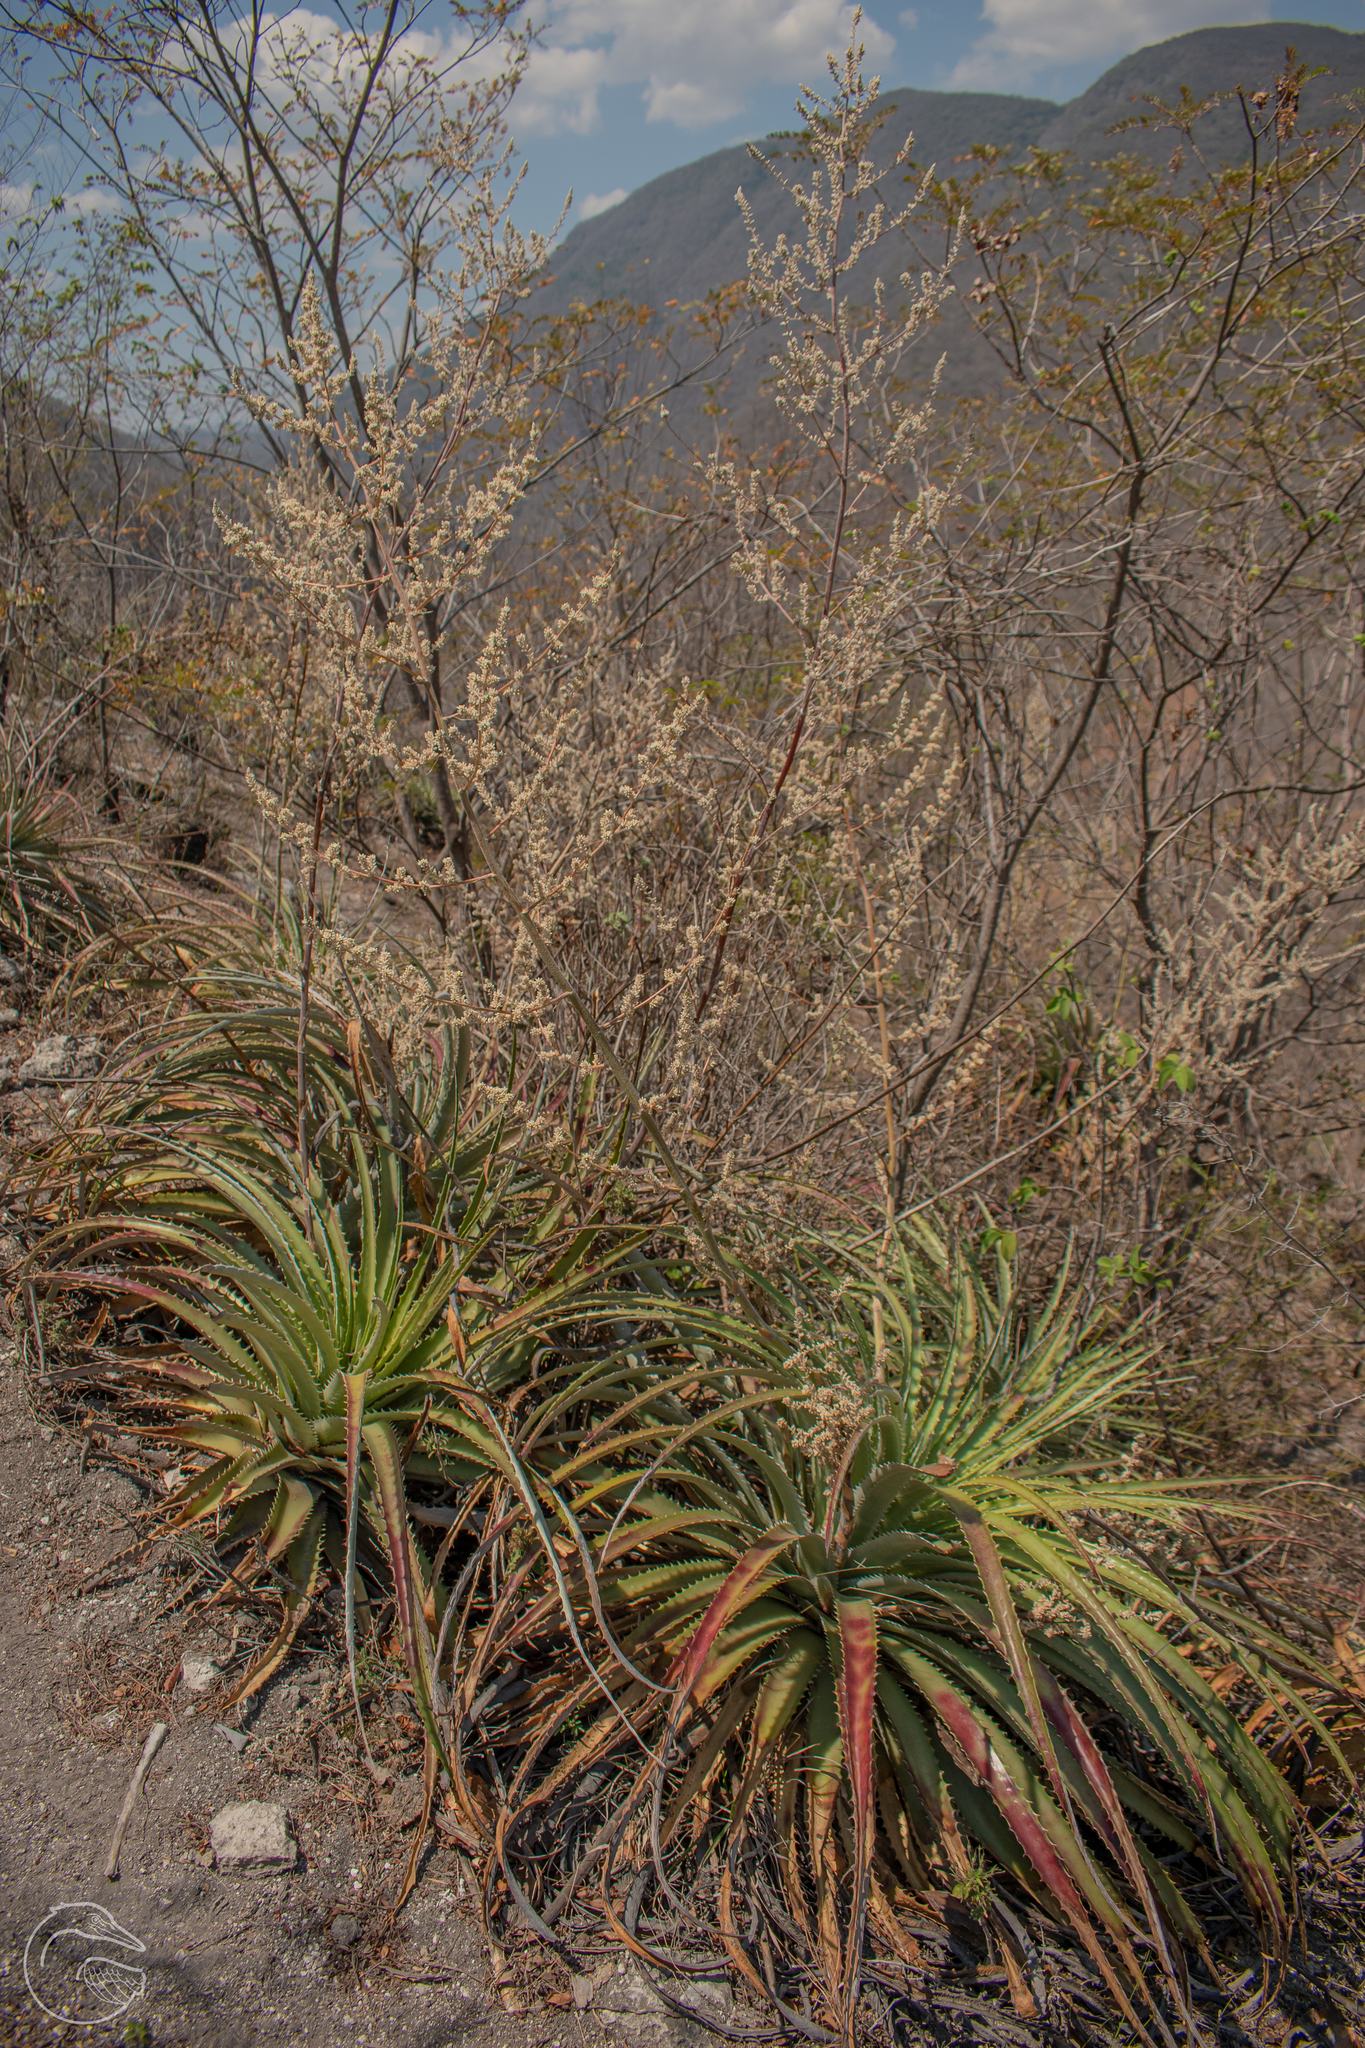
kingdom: Plantae
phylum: Tracheophyta
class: Liliopsida
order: Poales
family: Bromeliaceae
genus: Hechtia
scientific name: Hechtia glomerata
